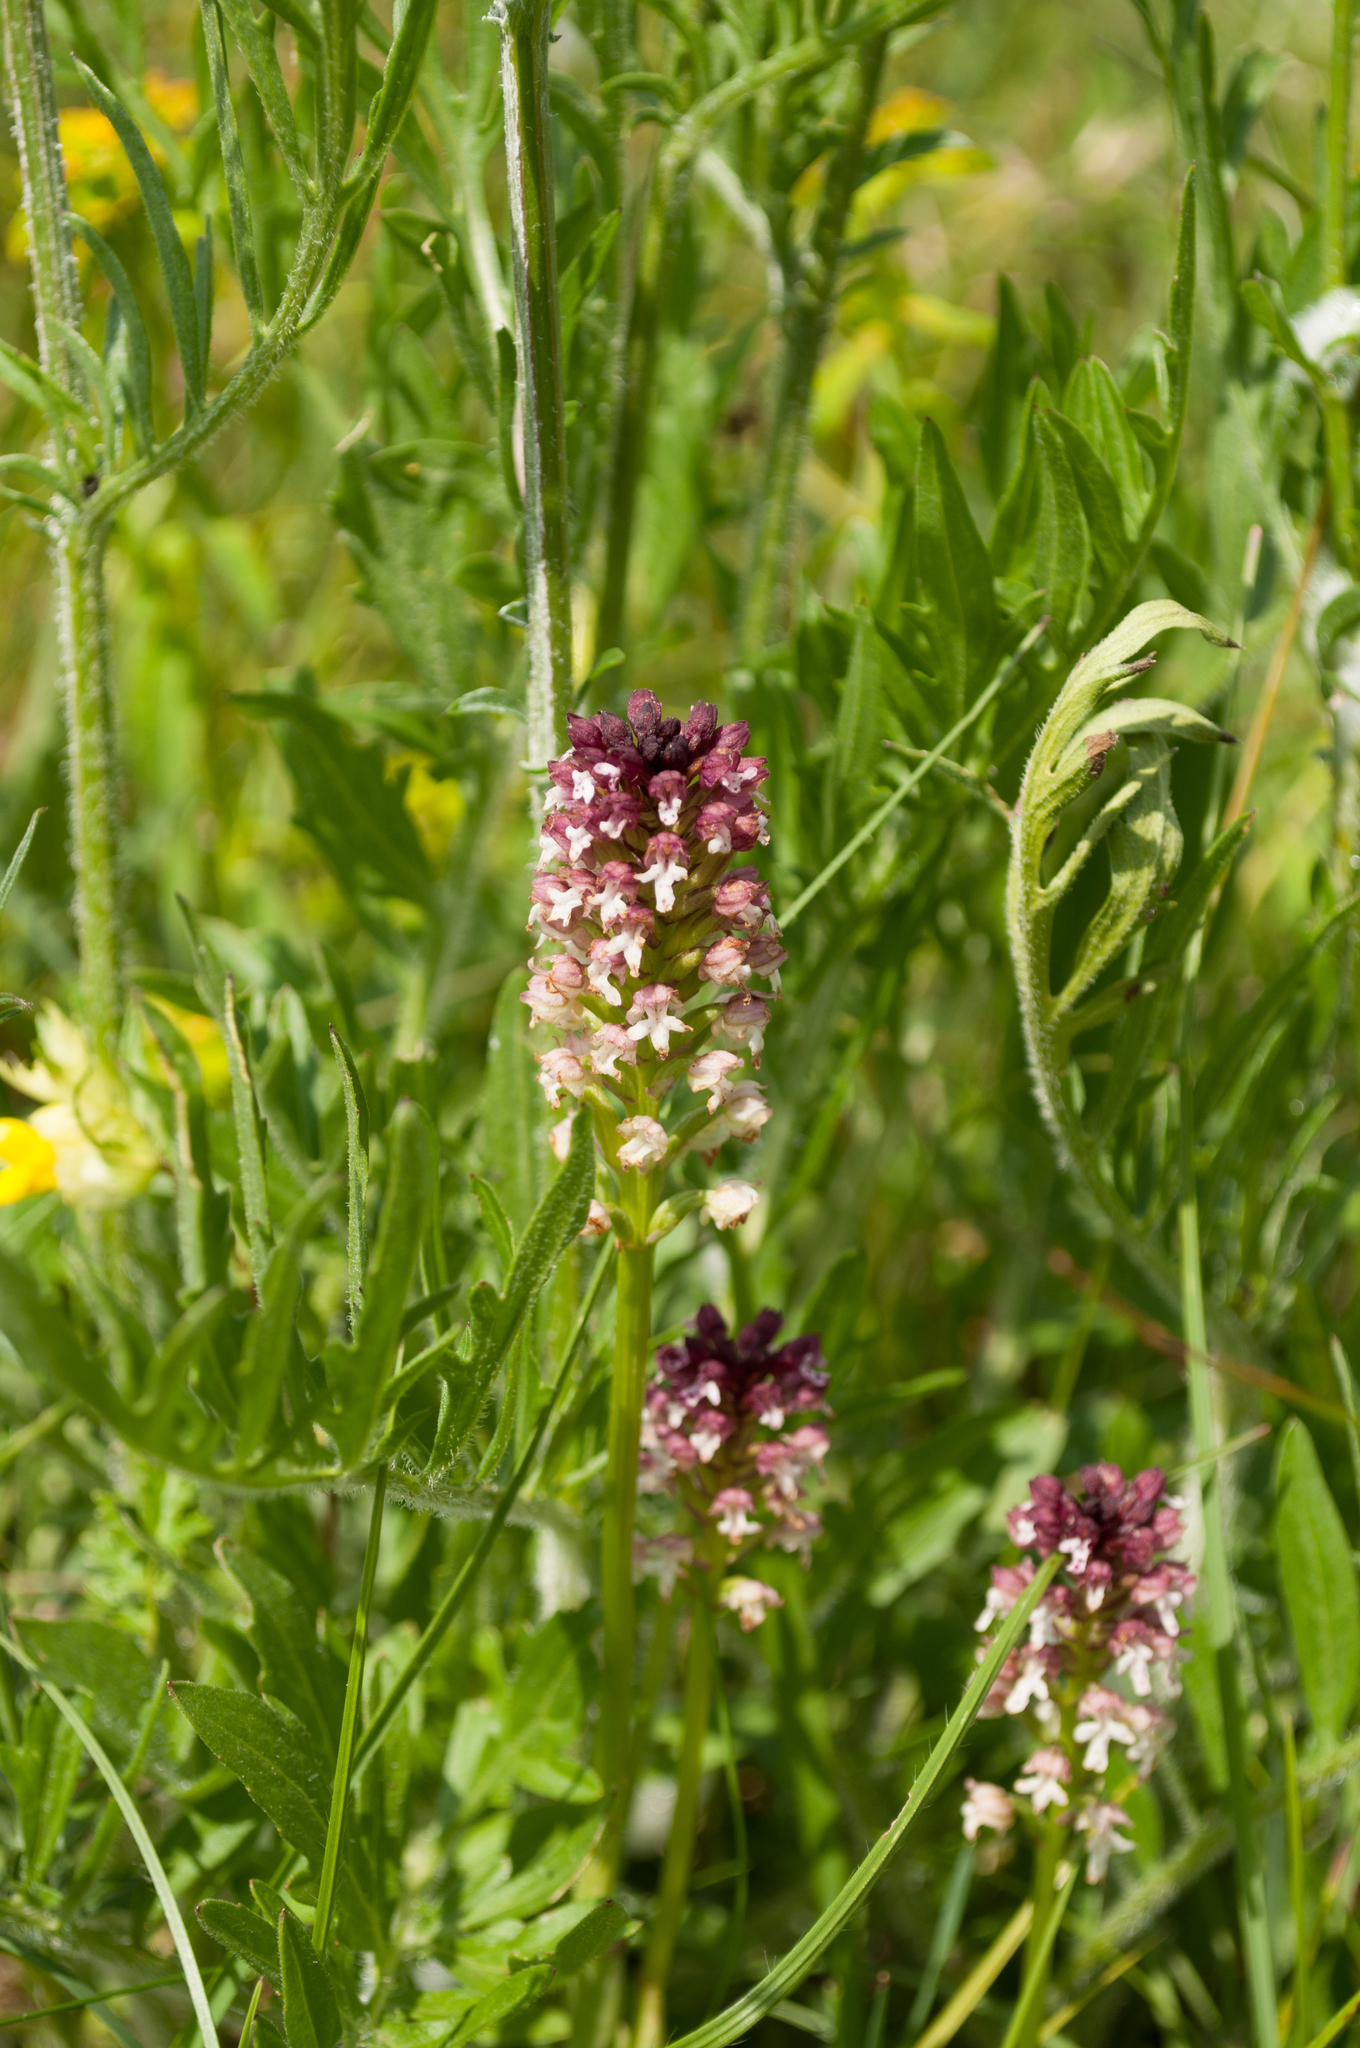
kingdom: Plantae
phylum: Tracheophyta
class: Liliopsida
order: Asparagales
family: Orchidaceae
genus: Neotinea
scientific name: Neotinea ustulata
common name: Burnt orchid
